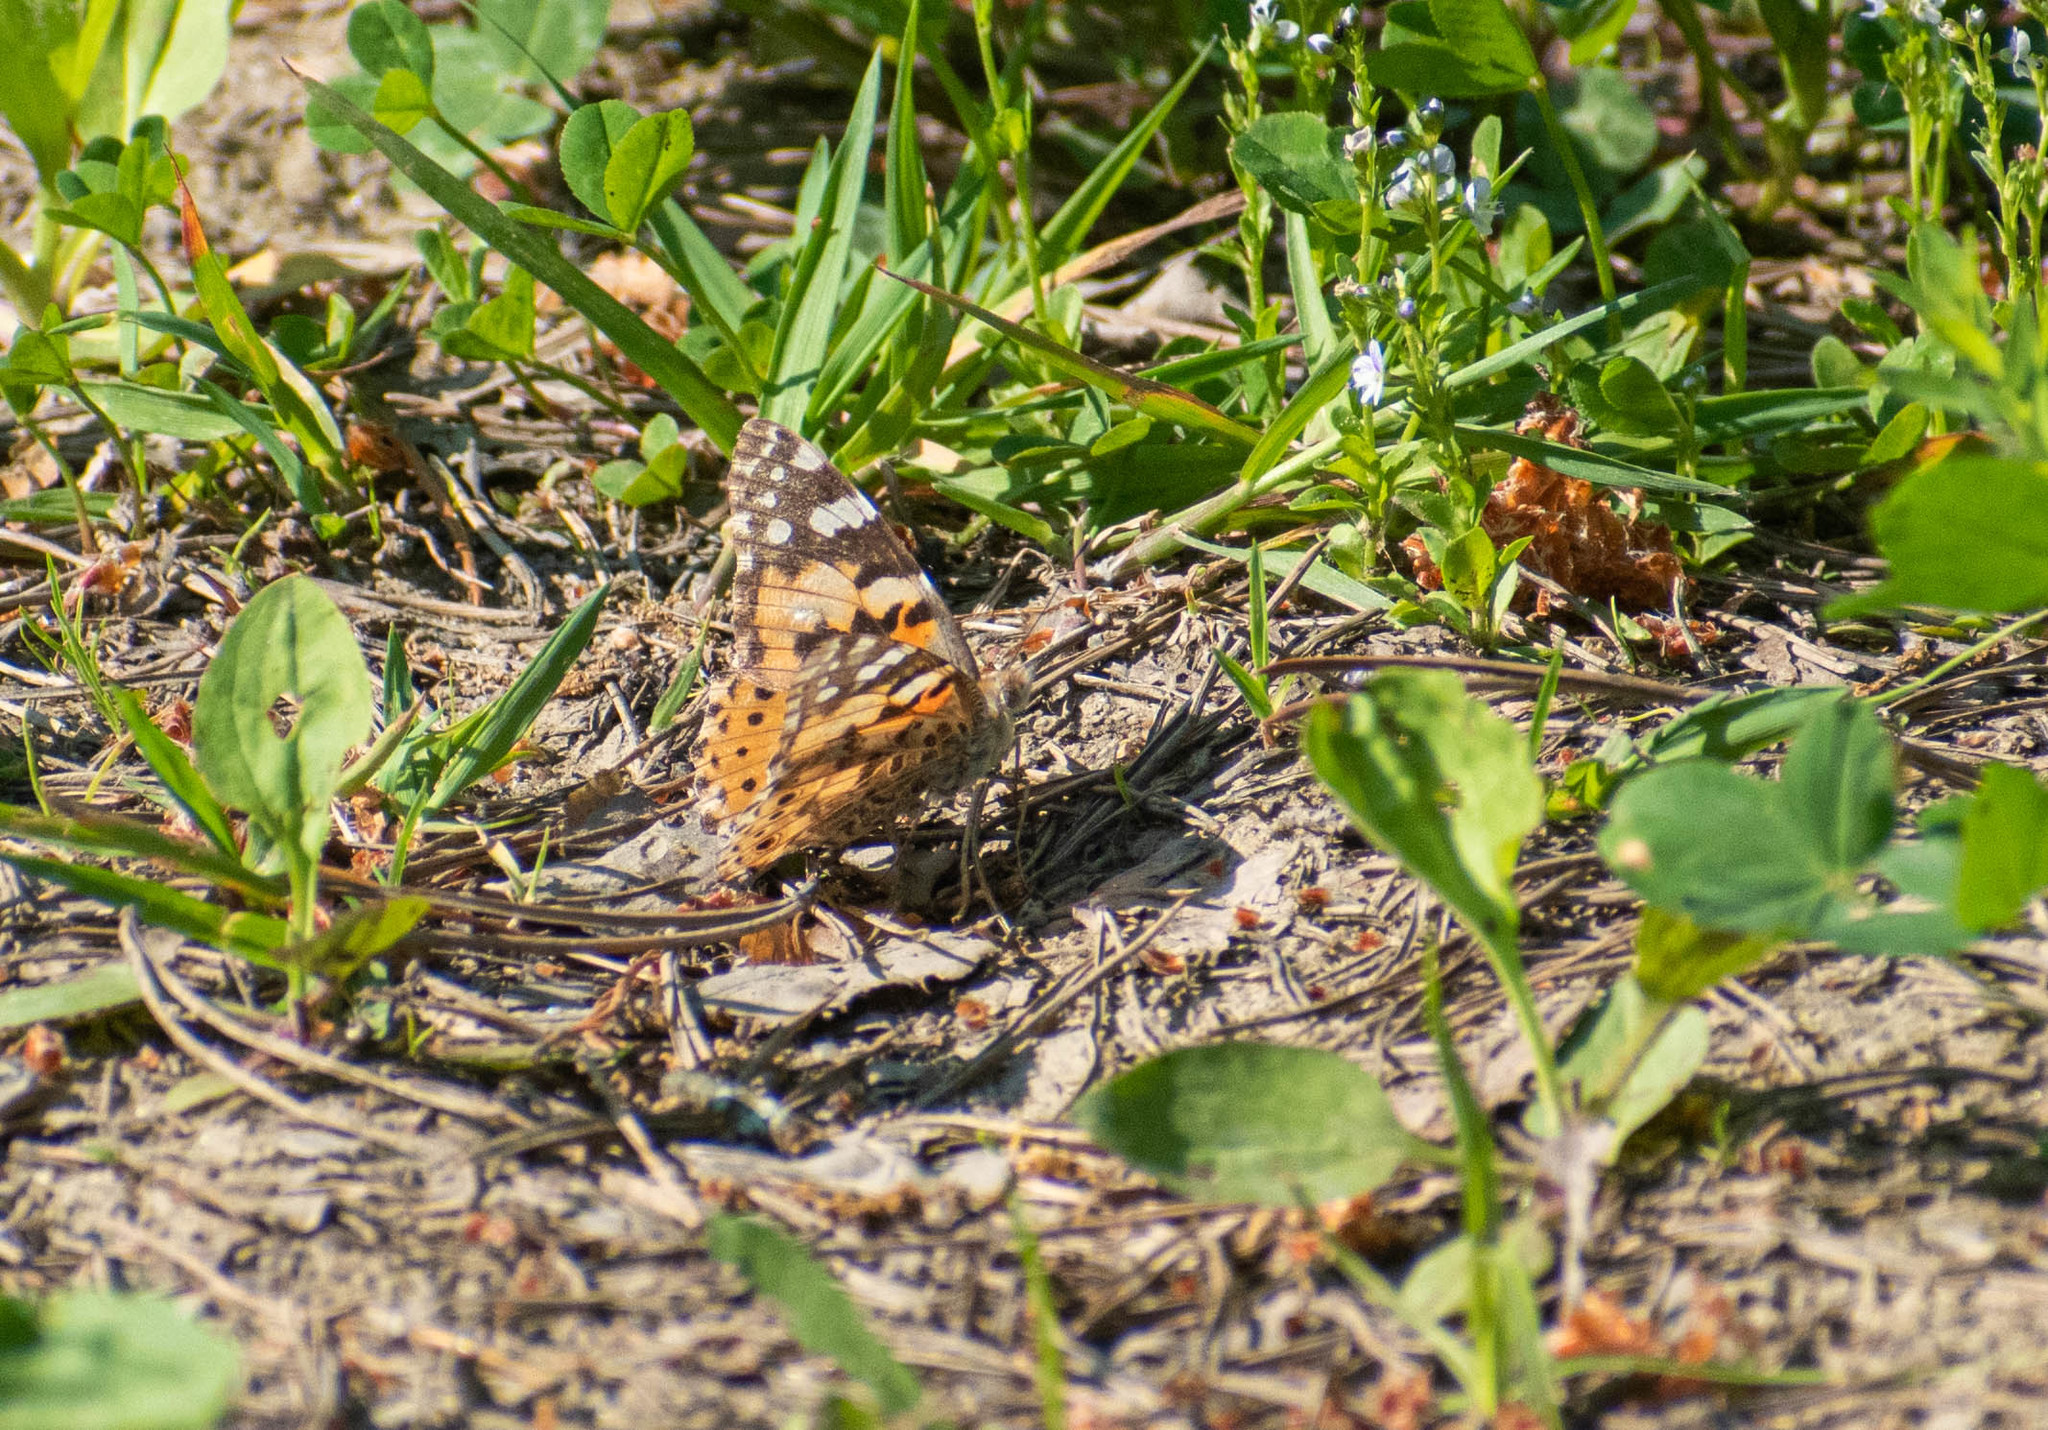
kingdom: Animalia
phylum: Arthropoda
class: Insecta
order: Lepidoptera
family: Nymphalidae
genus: Vanessa
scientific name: Vanessa cardui
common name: Painted lady
